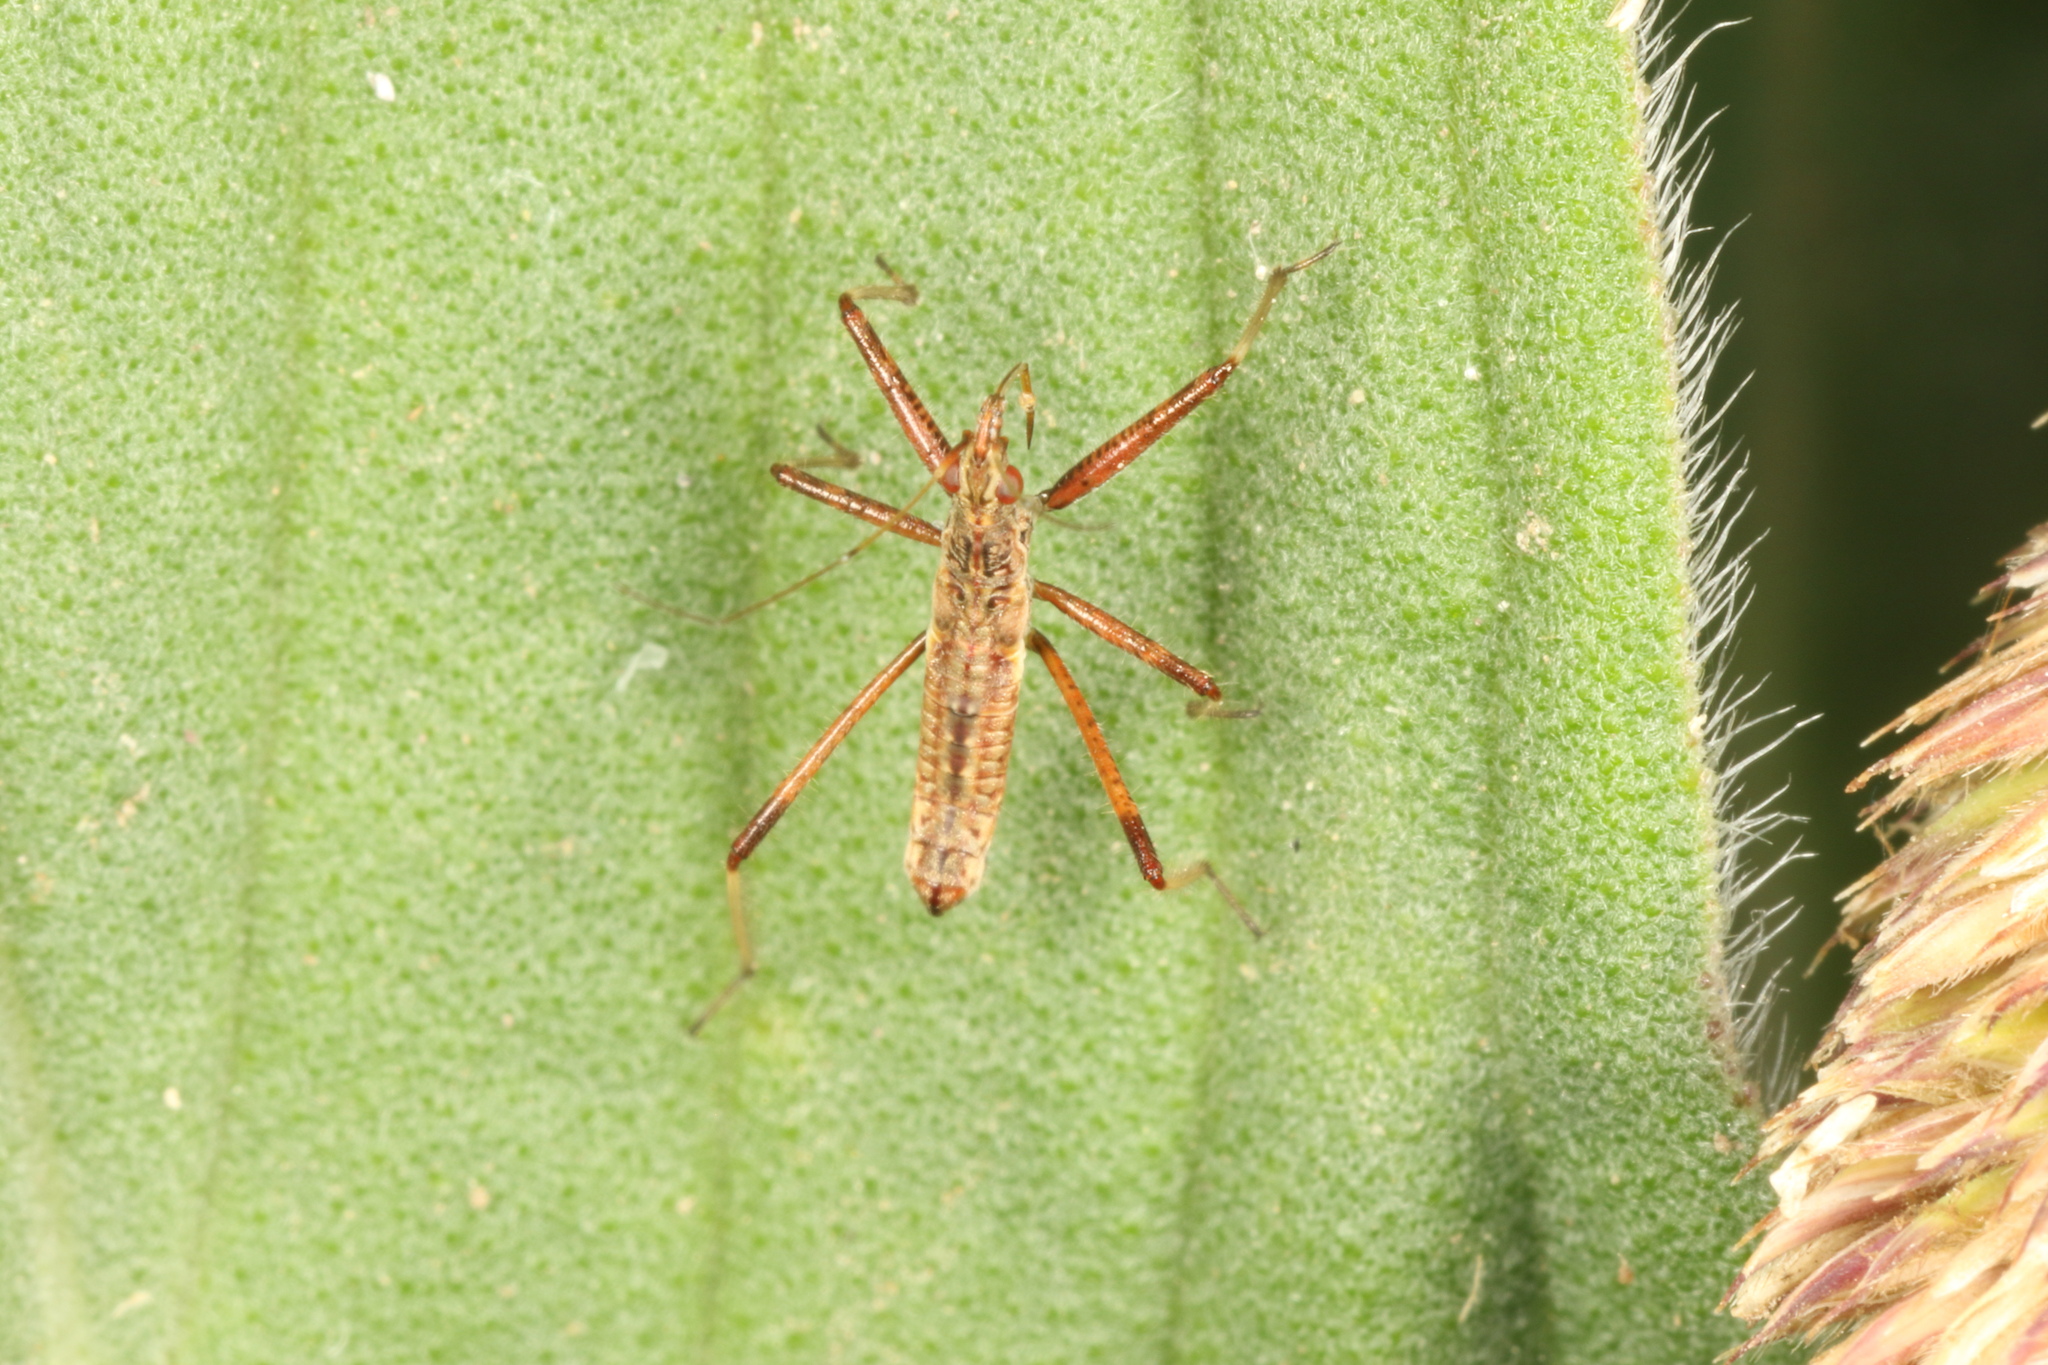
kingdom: Animalia
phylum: Arthropoda
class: Insecta
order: Hemiptera
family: Nabidae
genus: Nabis
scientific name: Nabis
